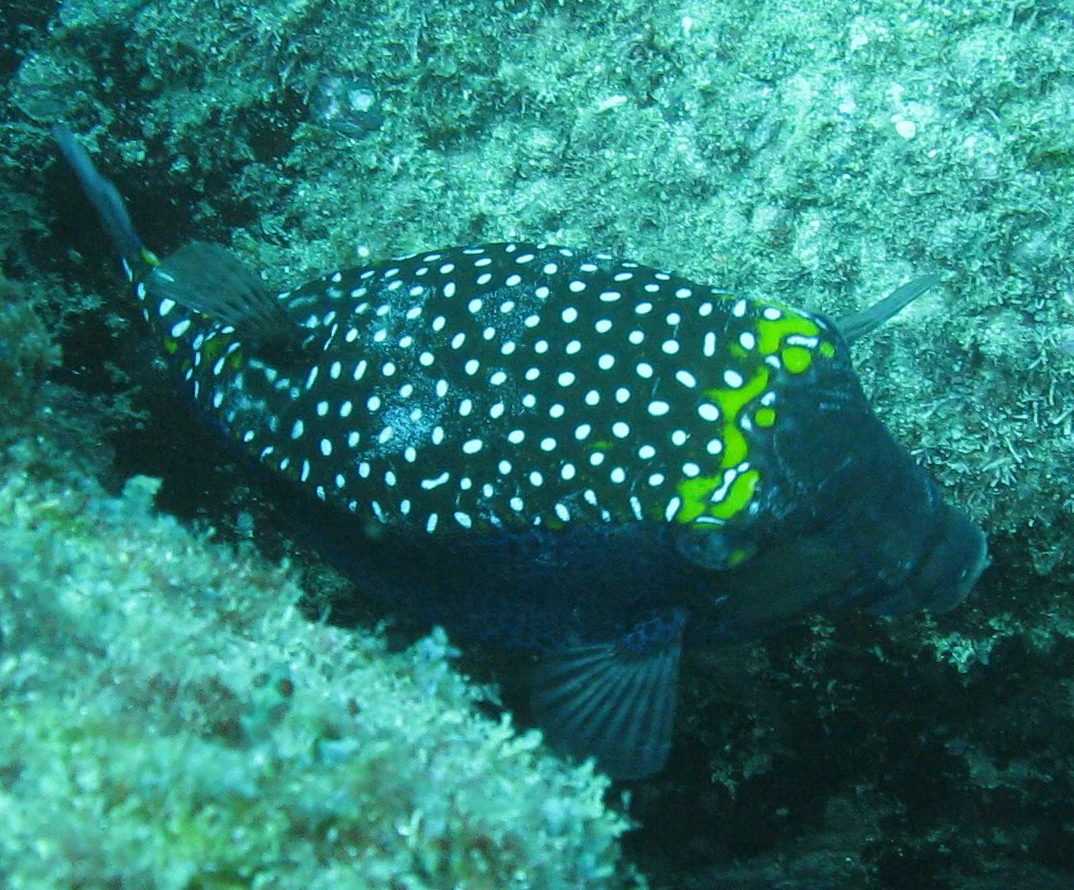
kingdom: Animalia
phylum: Chordata
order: Tetraodontiformes
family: Ostraciidae
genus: Ostracion
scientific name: Ostracion meleagris
